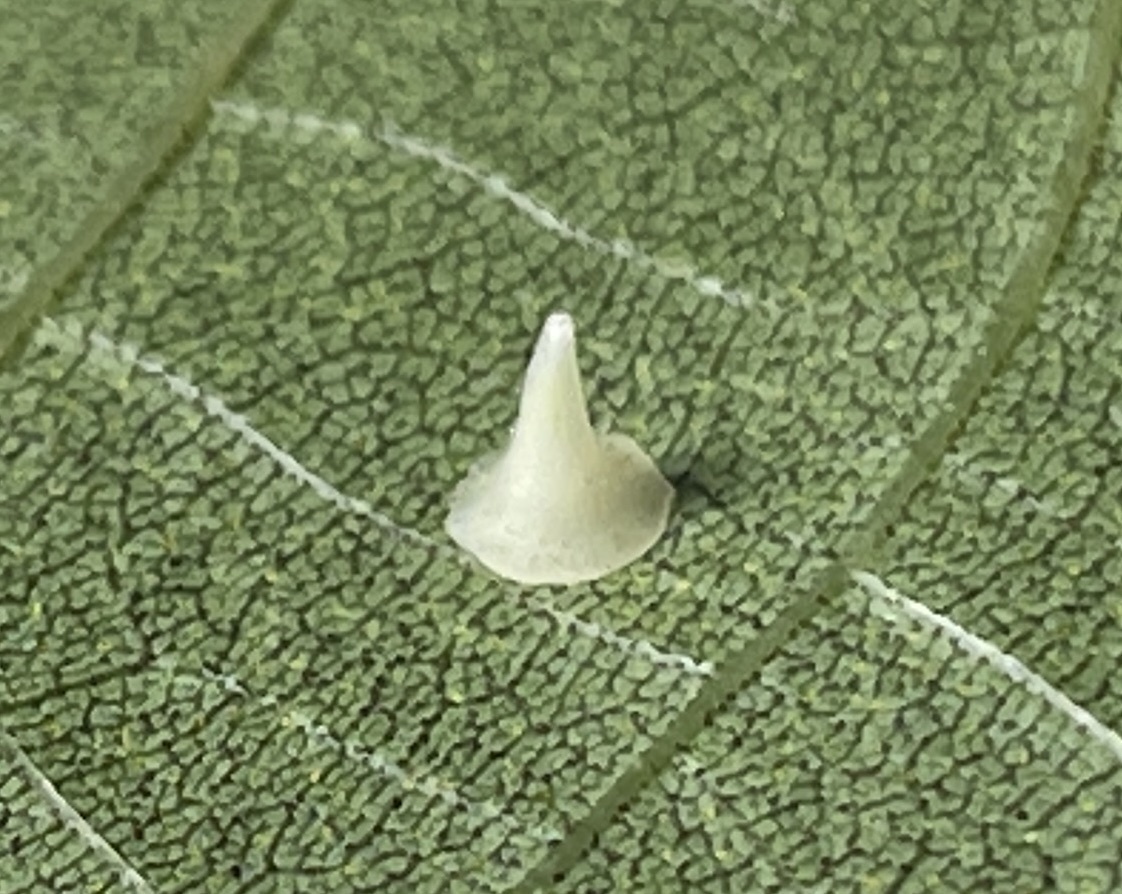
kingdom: Animalia
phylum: Arthropoda
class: Insecta
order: Diptera
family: Cecidomyiidae
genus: Caryomyia
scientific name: Caryomyia stellata
